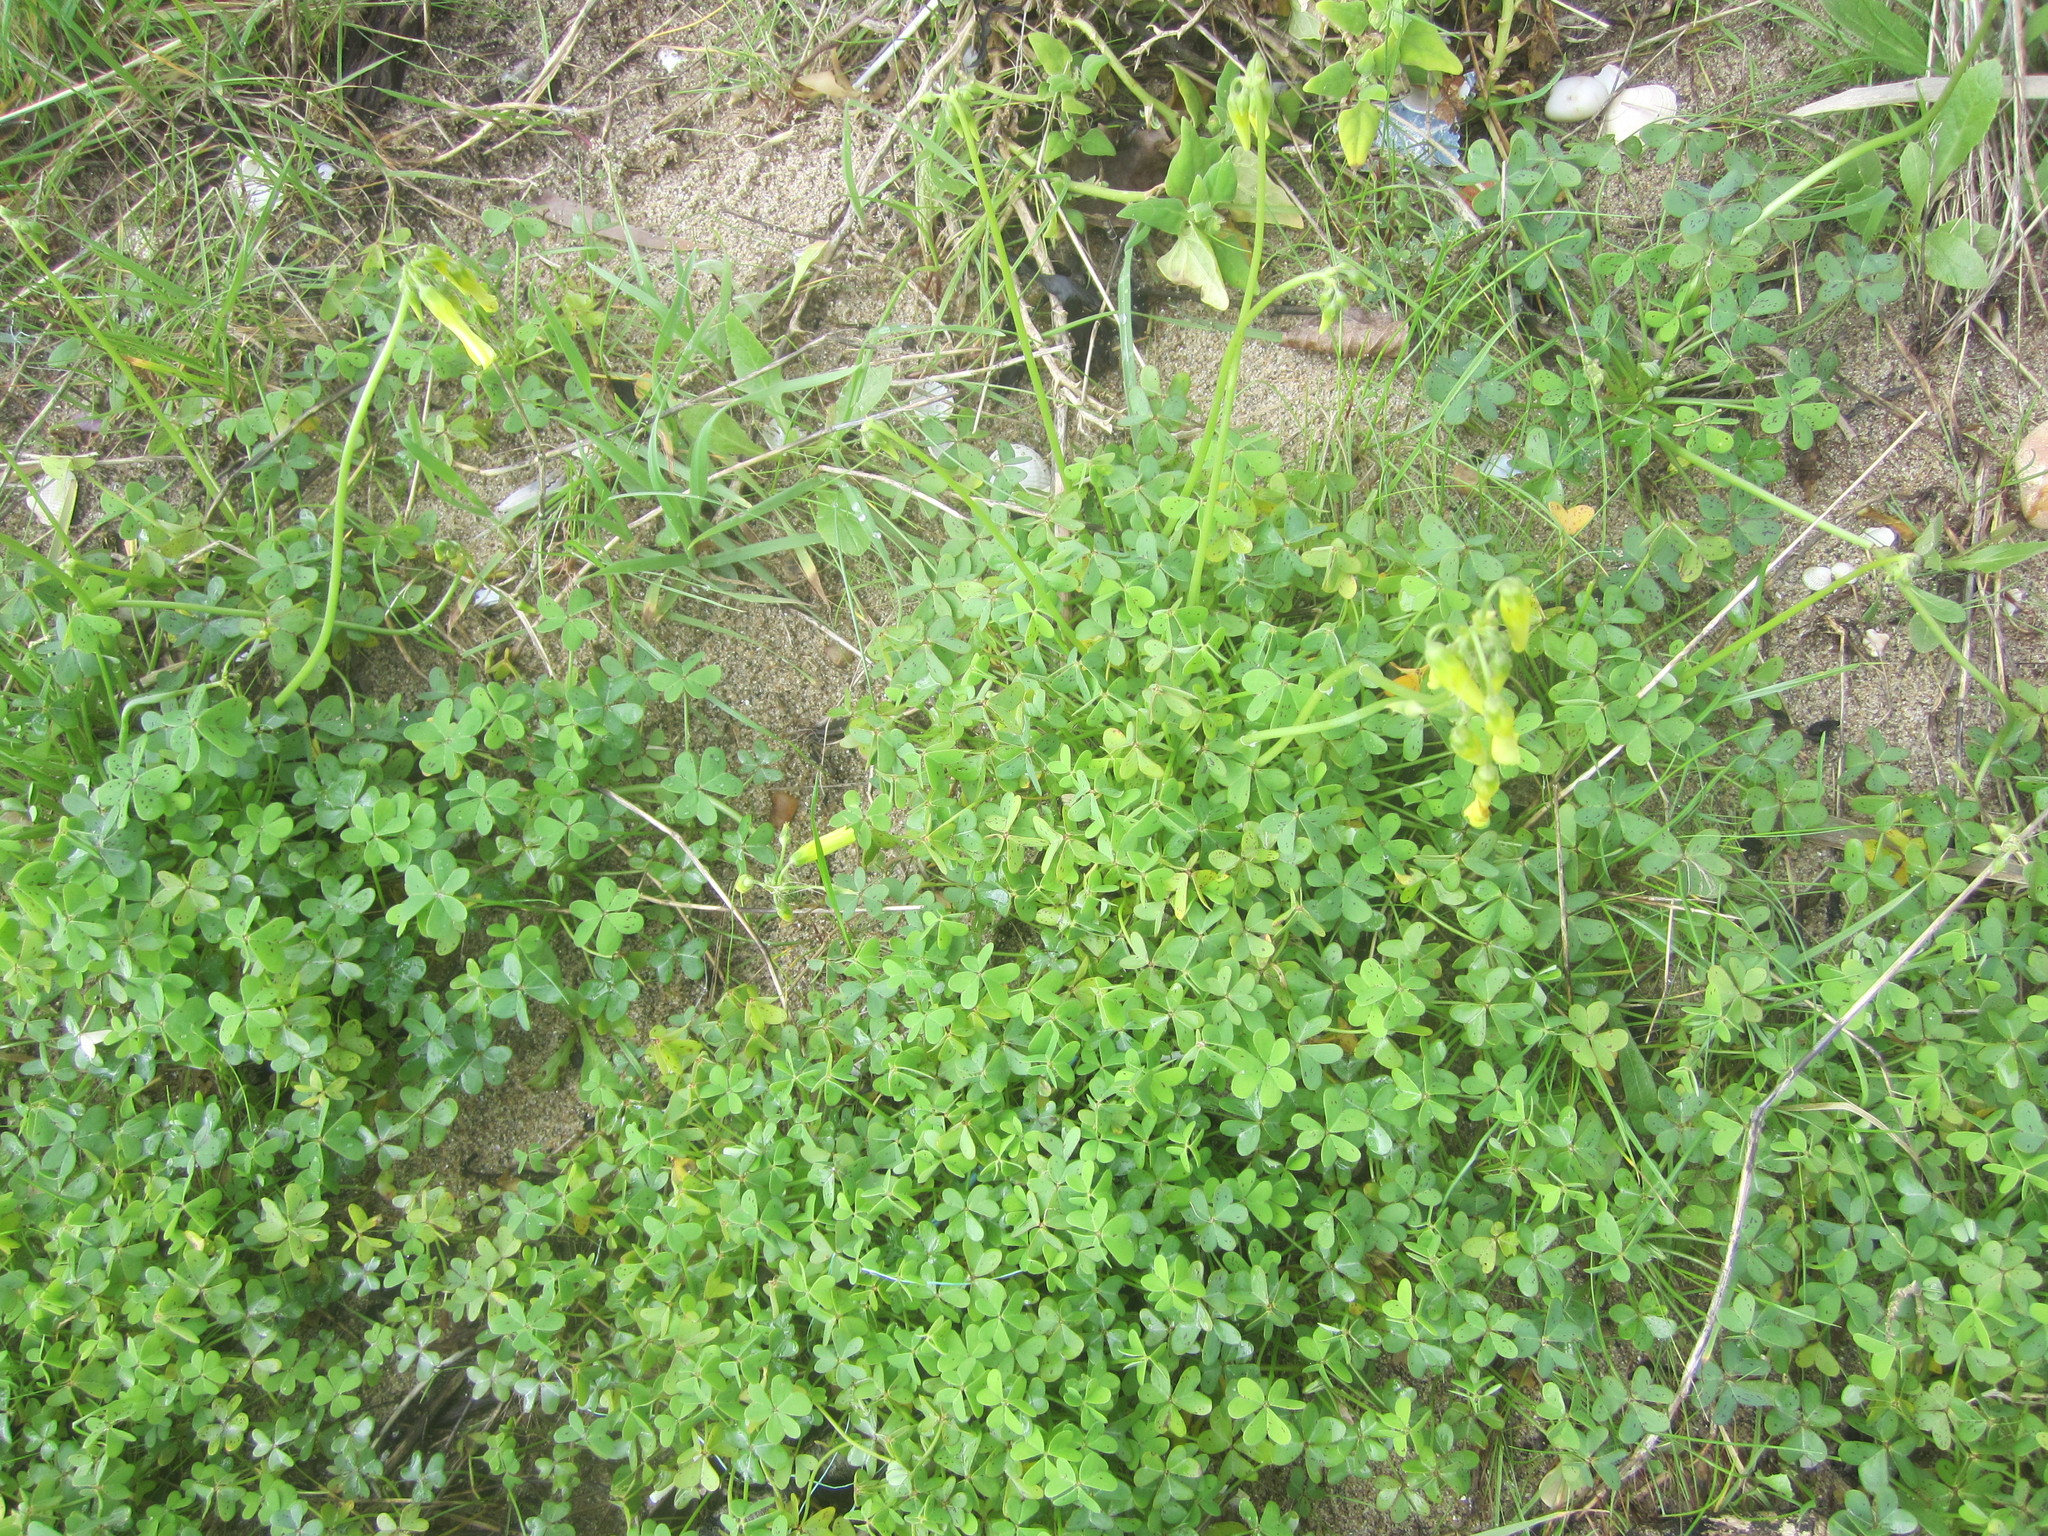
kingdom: Plantae
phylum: Tracheophyta
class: Magnoliopsida
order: Oxalidales
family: Oxalidaceae
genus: Oxalis
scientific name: Oxalis pes-caprae
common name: Bermuda-buttercup
